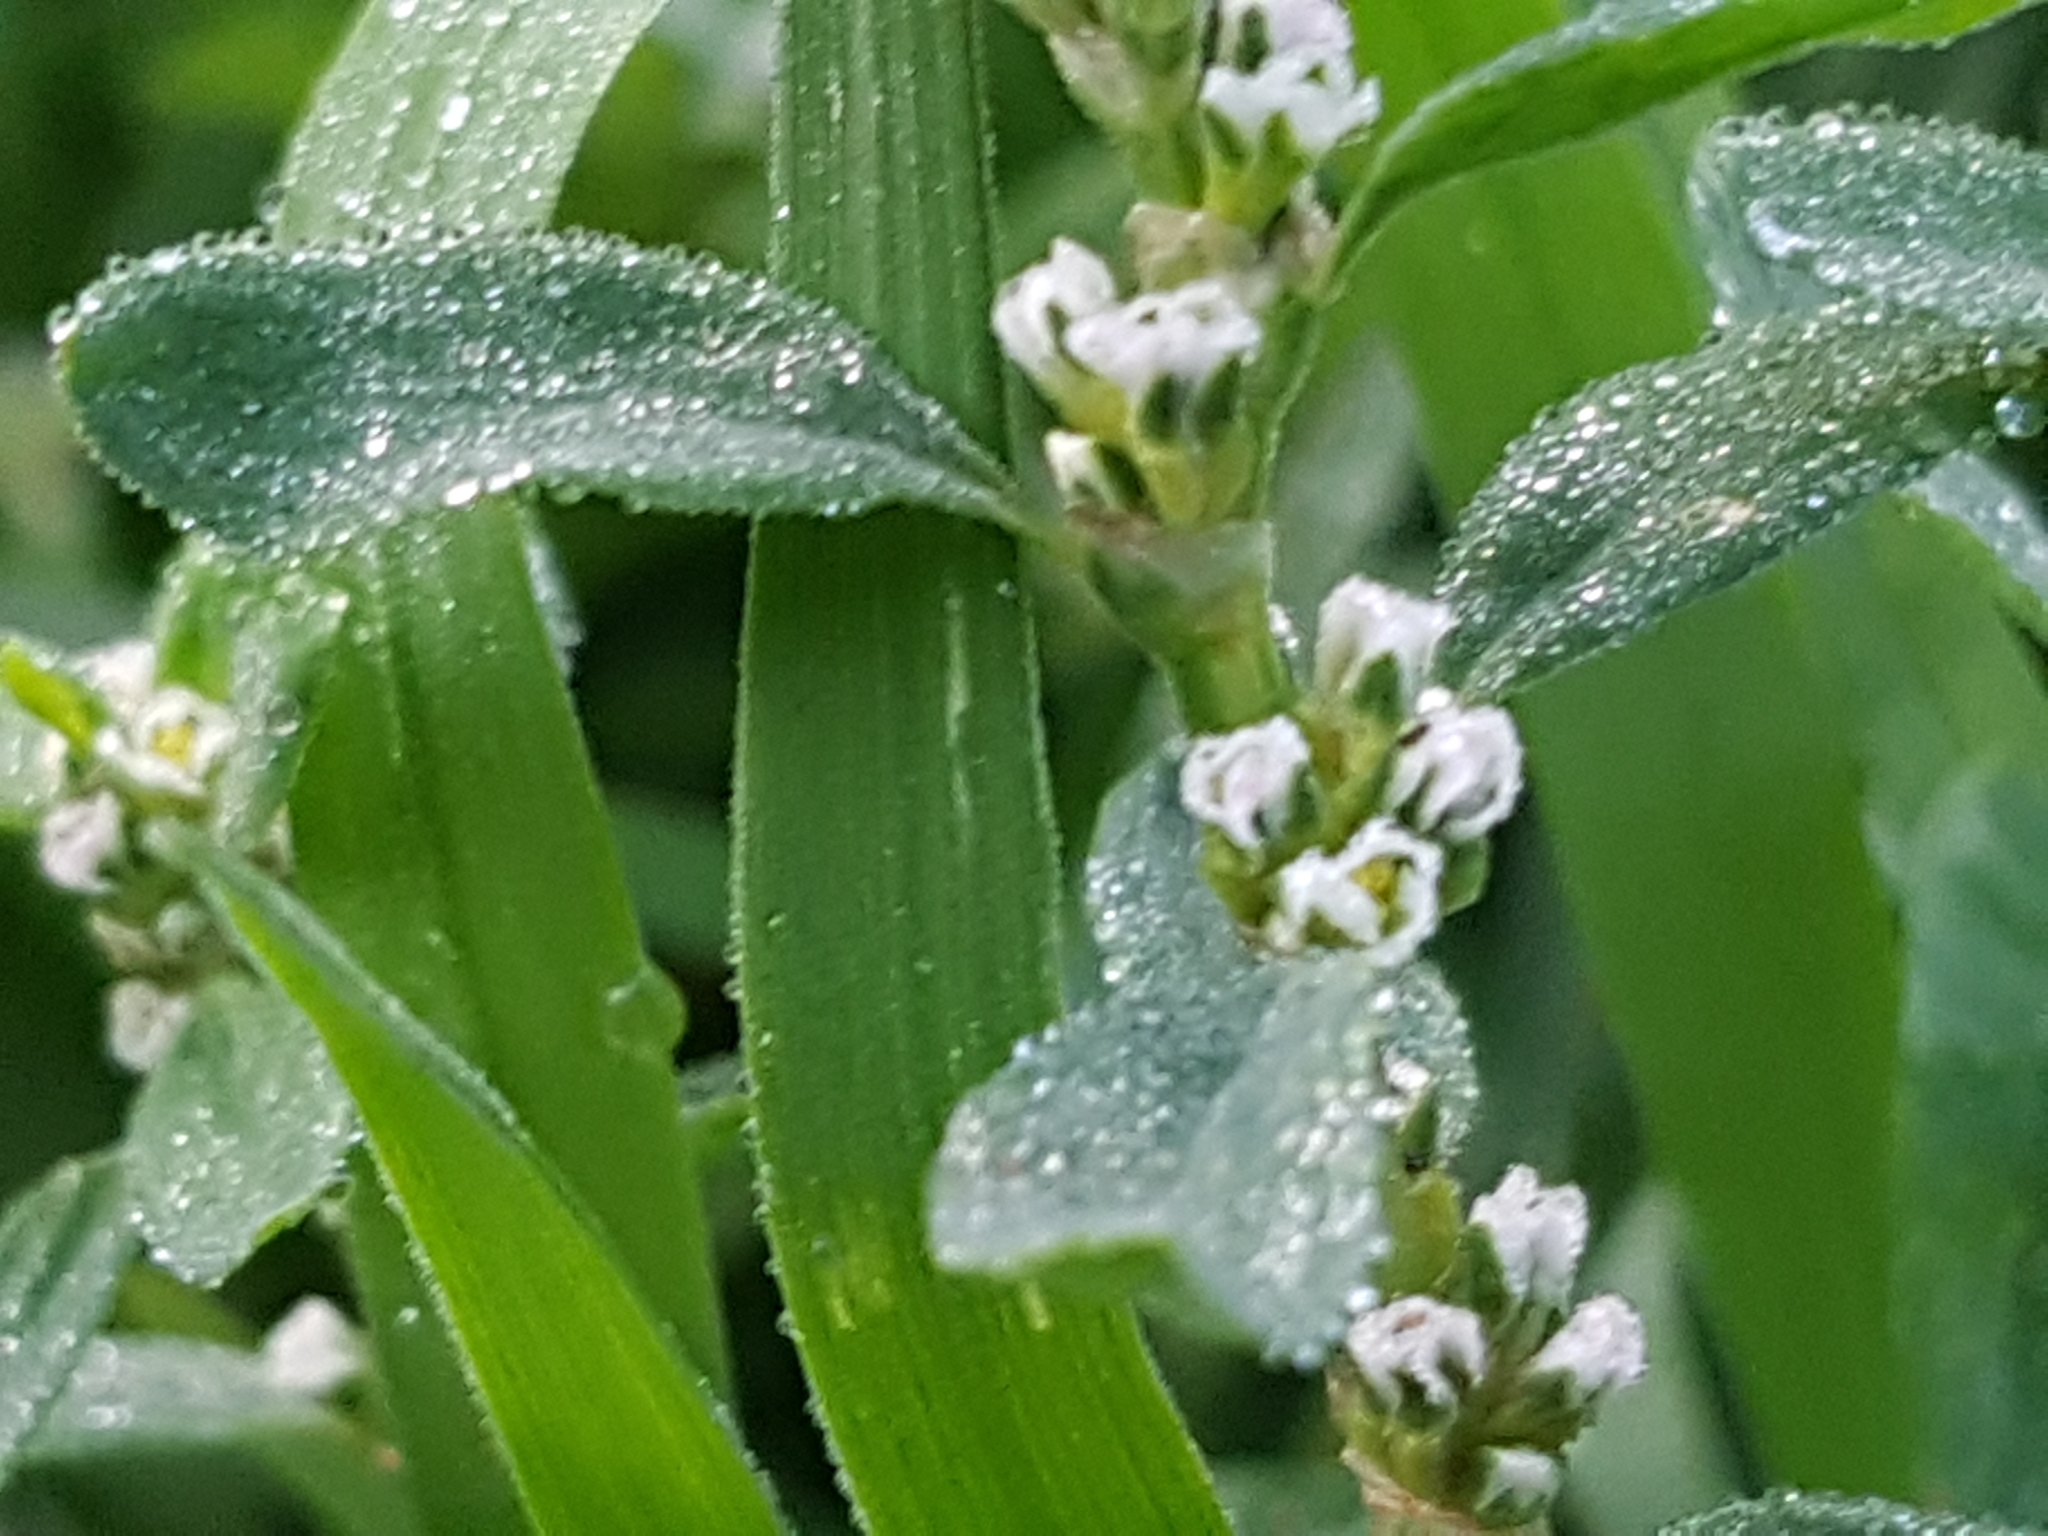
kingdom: Plantae
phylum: Tracheophyta
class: Magnoliopsida
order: Caryophyllales
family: Polygonaceae
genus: Polygonum
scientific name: Polygonum aviculare
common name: Prostrate knotweed
